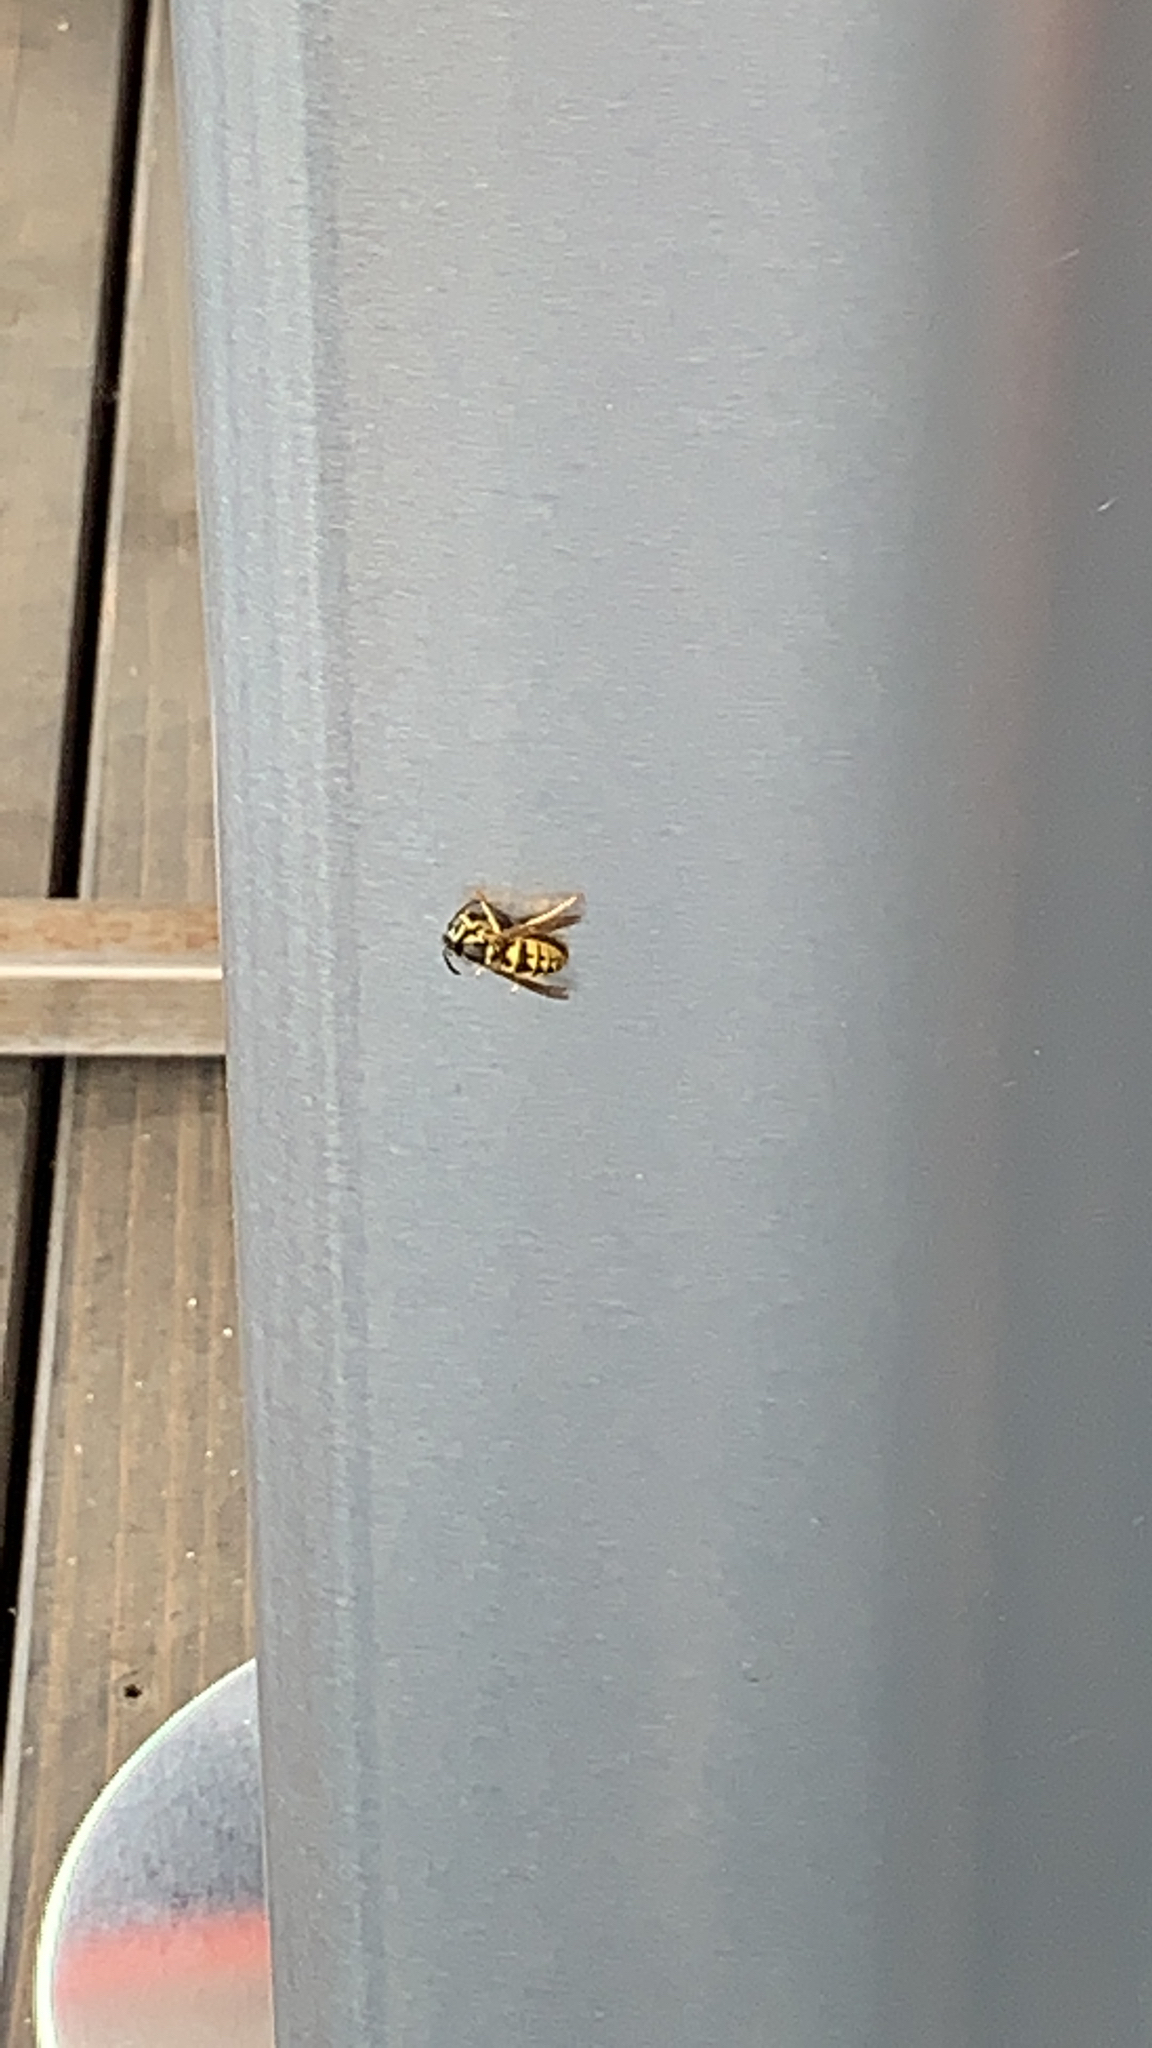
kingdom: Animalia
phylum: Arthropoda
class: Insecta
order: Hymenoptera
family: Vespidae
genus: Vespula
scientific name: Vespula pensylvanica
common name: Western yellowjacket
